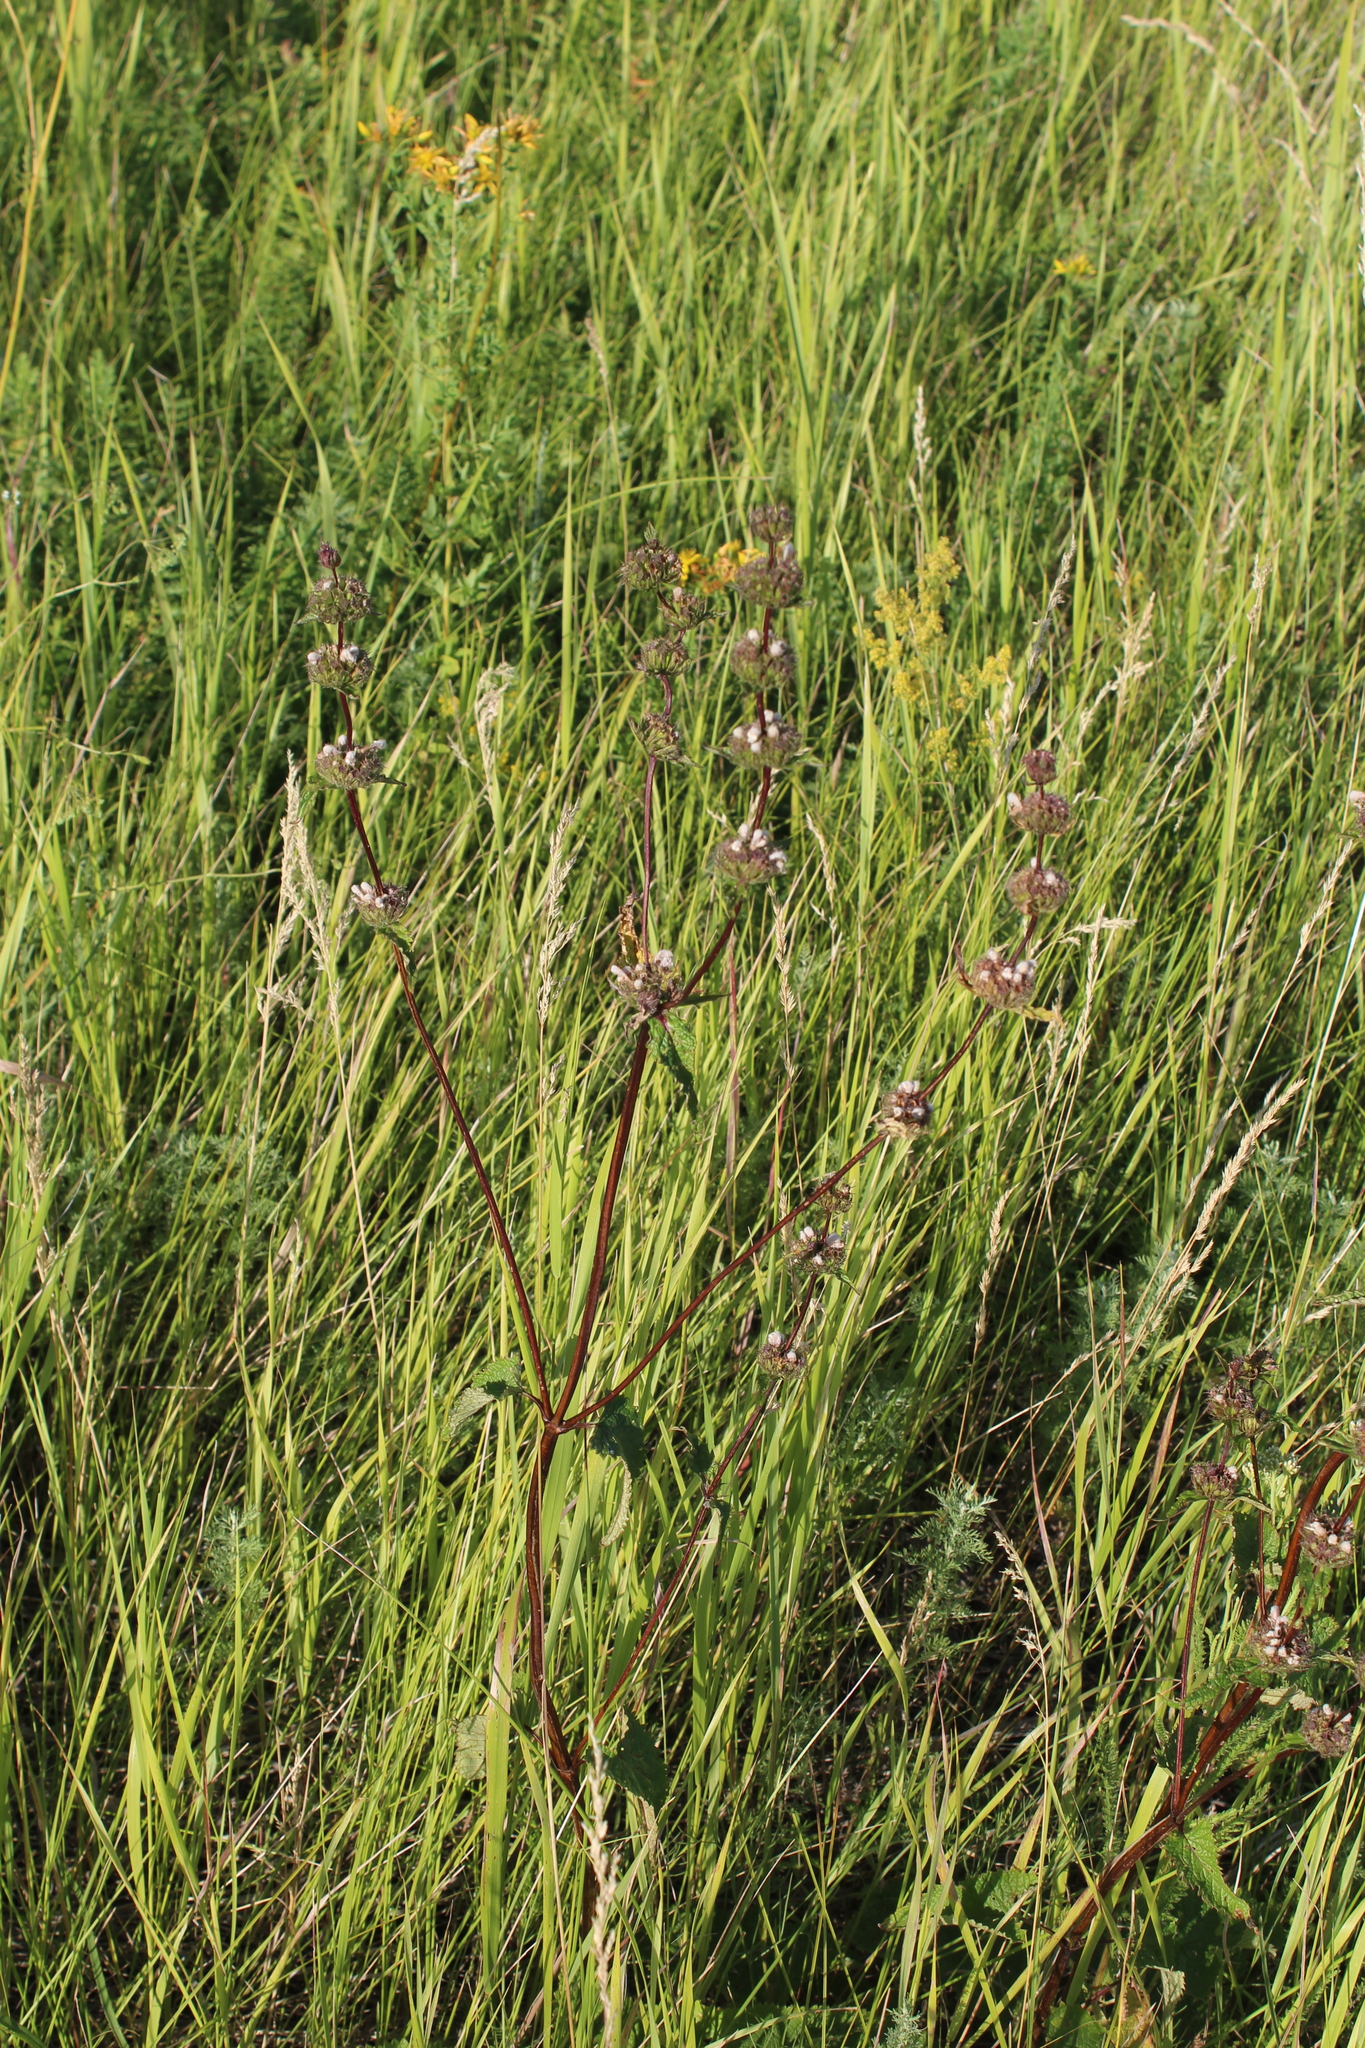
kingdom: Plantae
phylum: Tracheophyta
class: Magnoliopsida
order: Lamiales
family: Lamiaceae
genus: Phlomoides
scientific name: Phlomoides tuberosa
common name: Tuberous jerusalem sage
